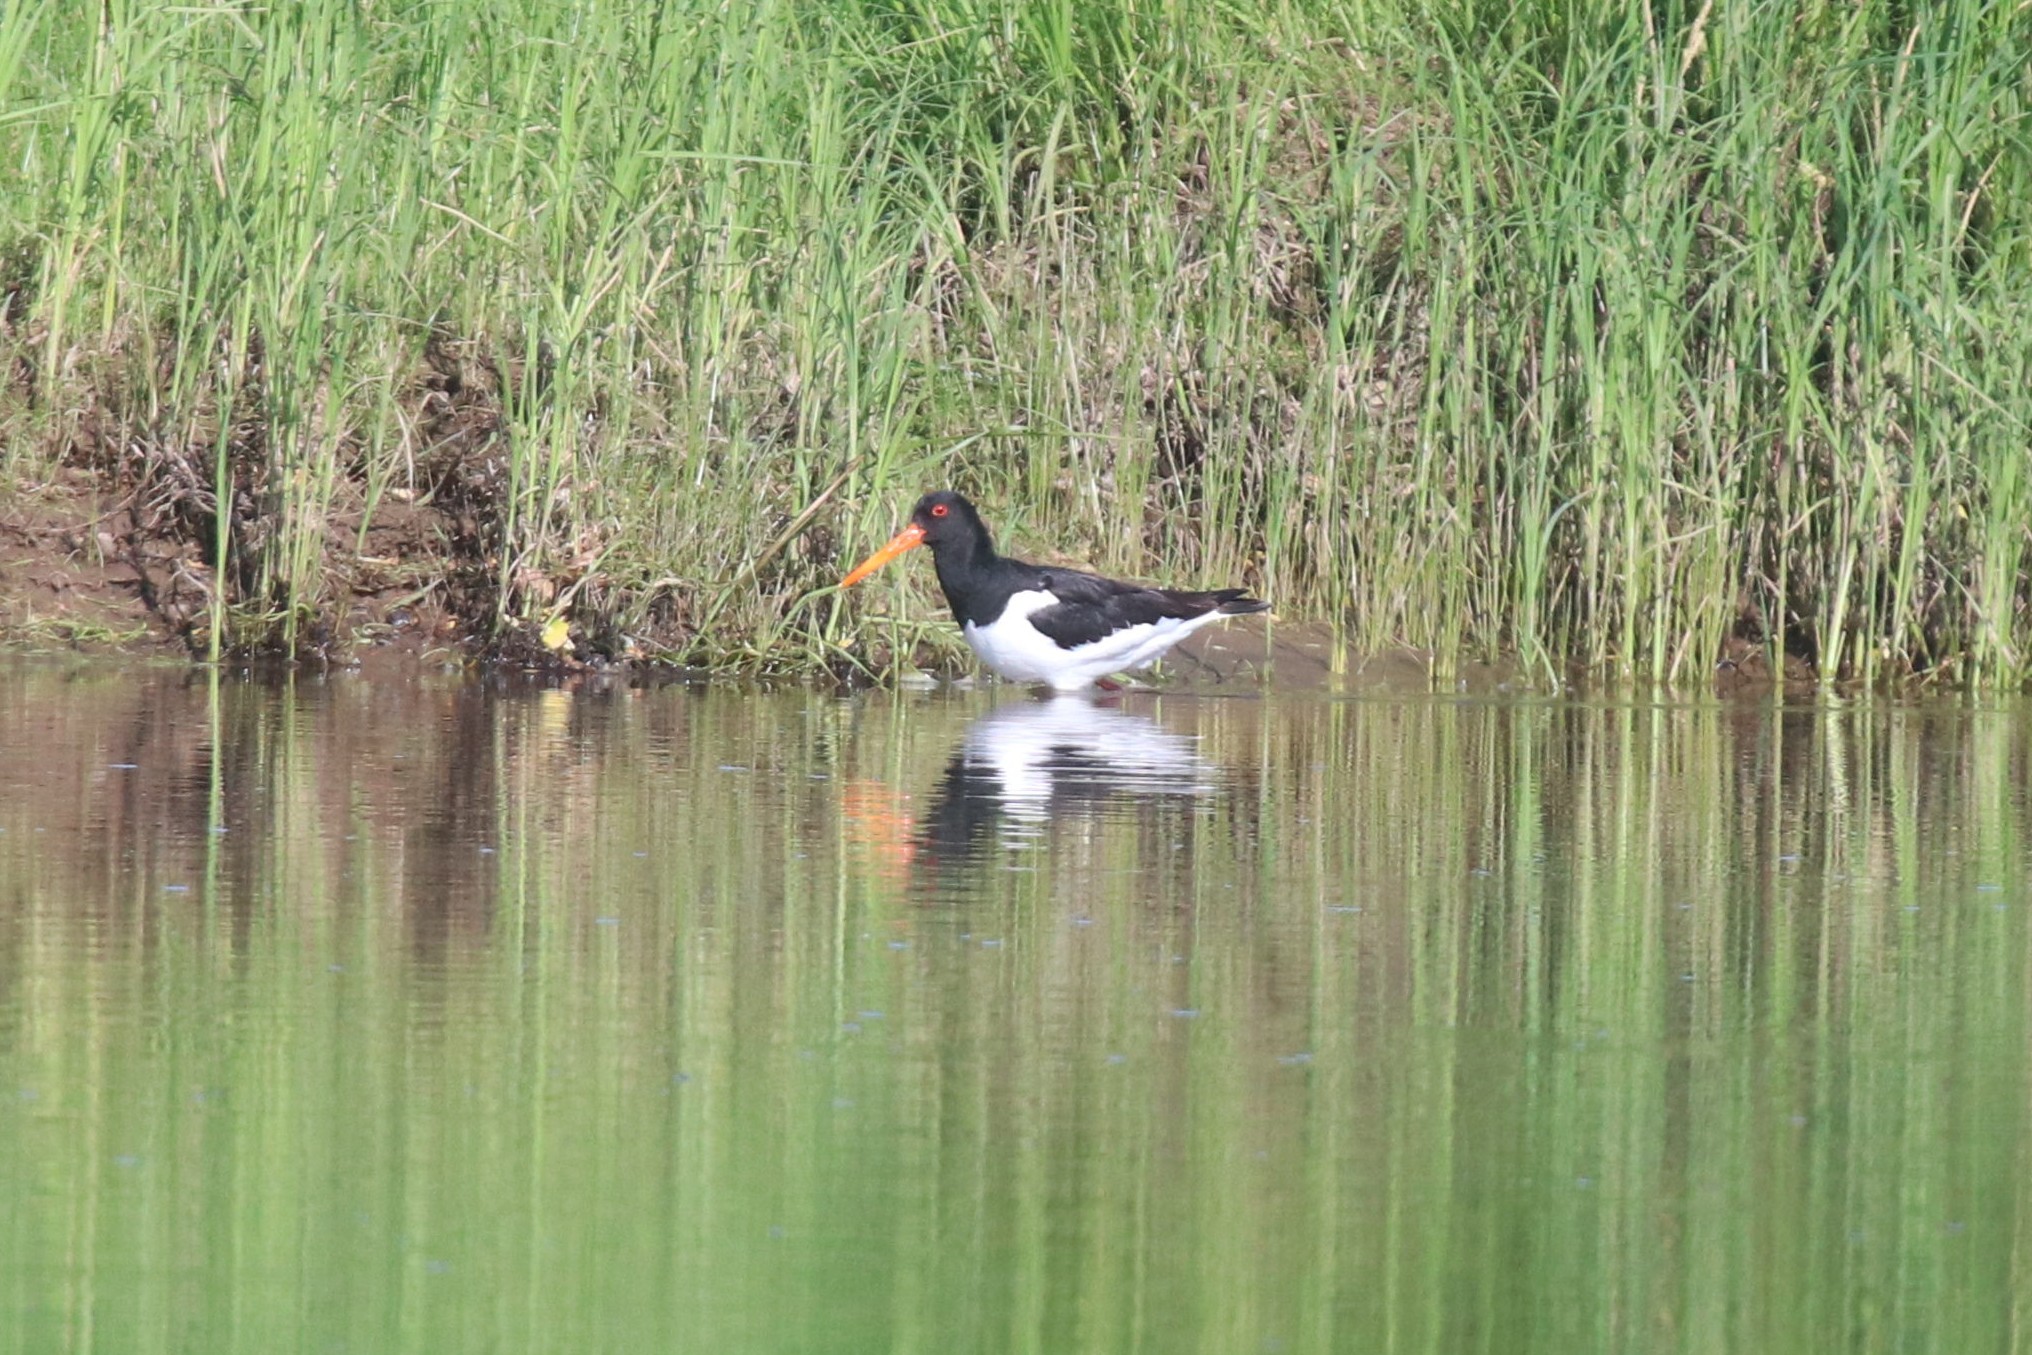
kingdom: Animalia
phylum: Chordata
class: Aves
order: Charadriiformes
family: Haematopodidae
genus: Haematopus
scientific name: Haematopus ostralegus
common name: Eurasian oystercatcher
